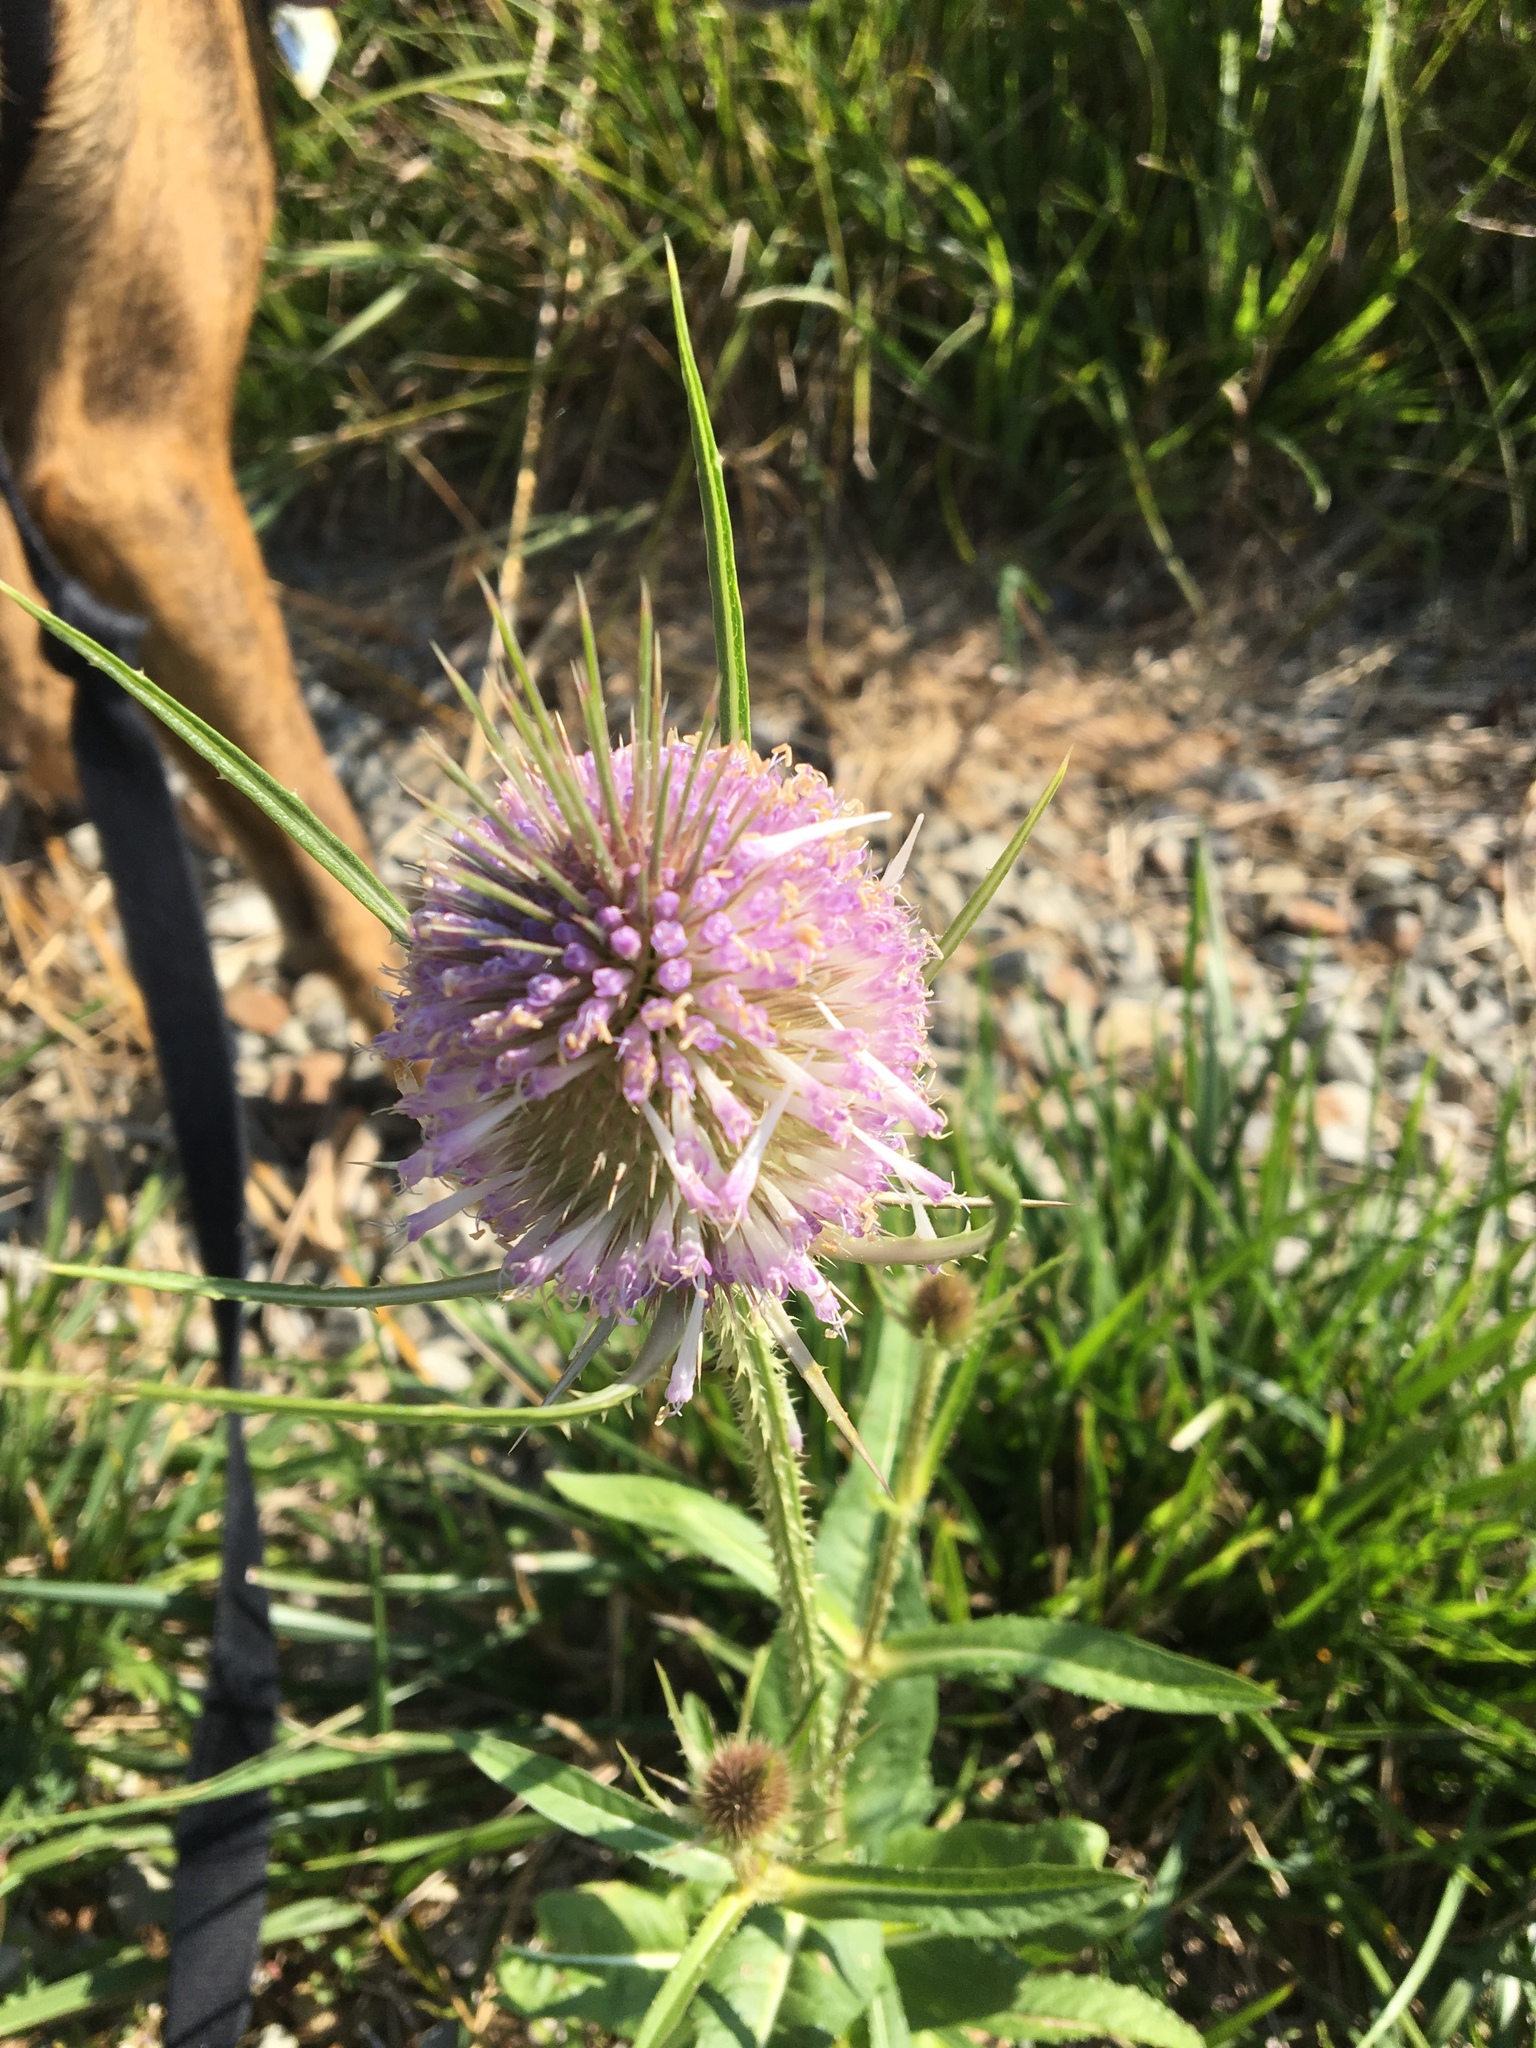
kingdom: Plantae
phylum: Tracheophyta
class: Magnoliopsida
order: Dipsacales
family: Caprifoliaceae
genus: Dipsacus
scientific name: Dipsacus fullonum
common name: Teasel
